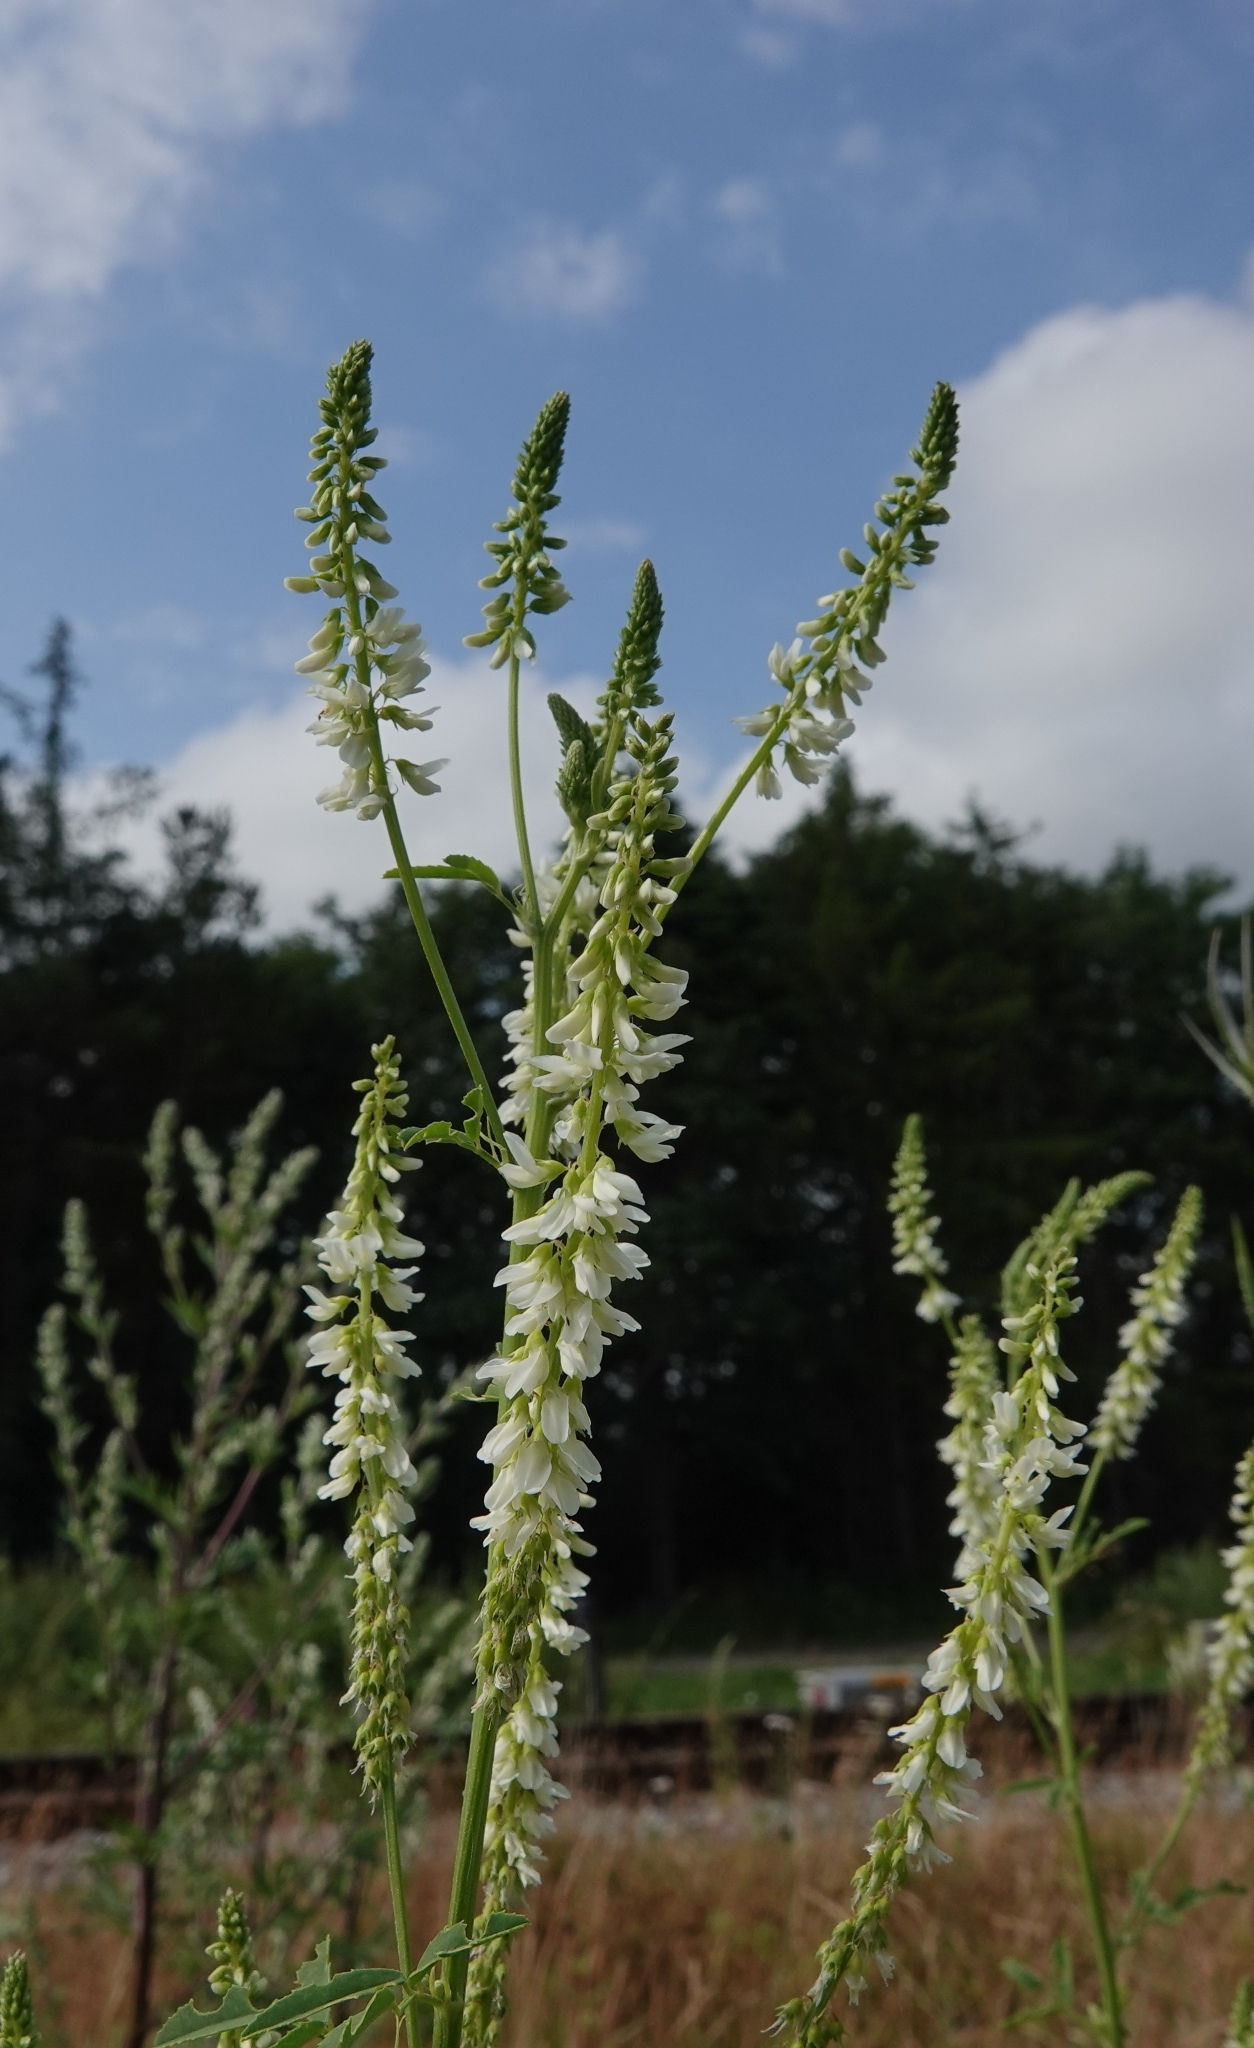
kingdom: Plantae
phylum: Tracheophyta
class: Magnoliopsida
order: Fabales
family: Fabaceae
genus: Melilotus
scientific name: Melilotus albus
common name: White melilot
